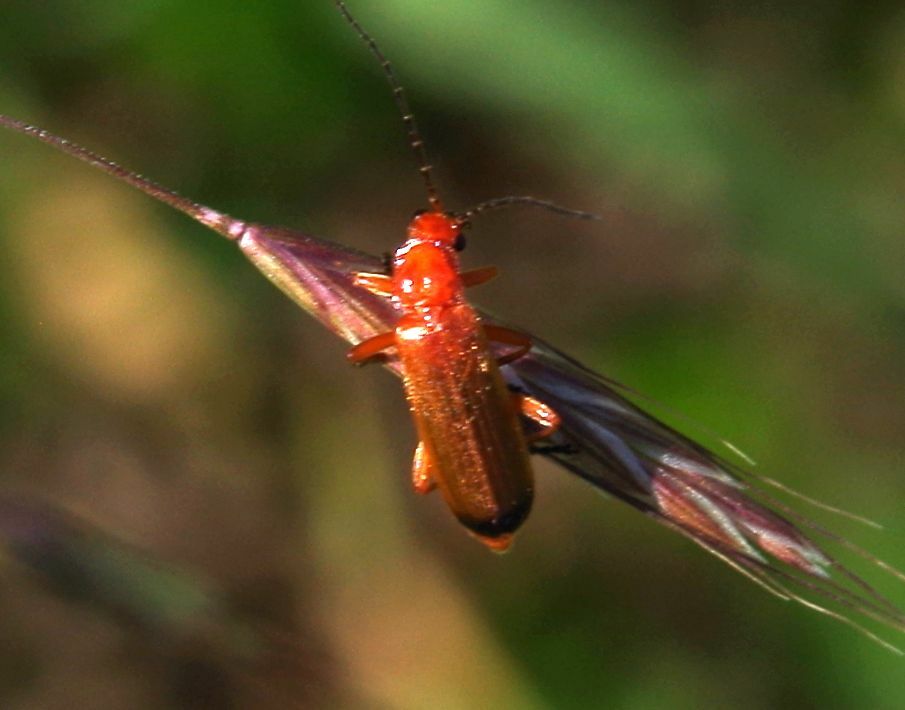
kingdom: Animalia
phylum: Arthropoda
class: Insecta
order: Coleoptera
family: Cantharidae
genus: Rhagonycha
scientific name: Rhagonycha fulva
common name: Common red soldier beetle
